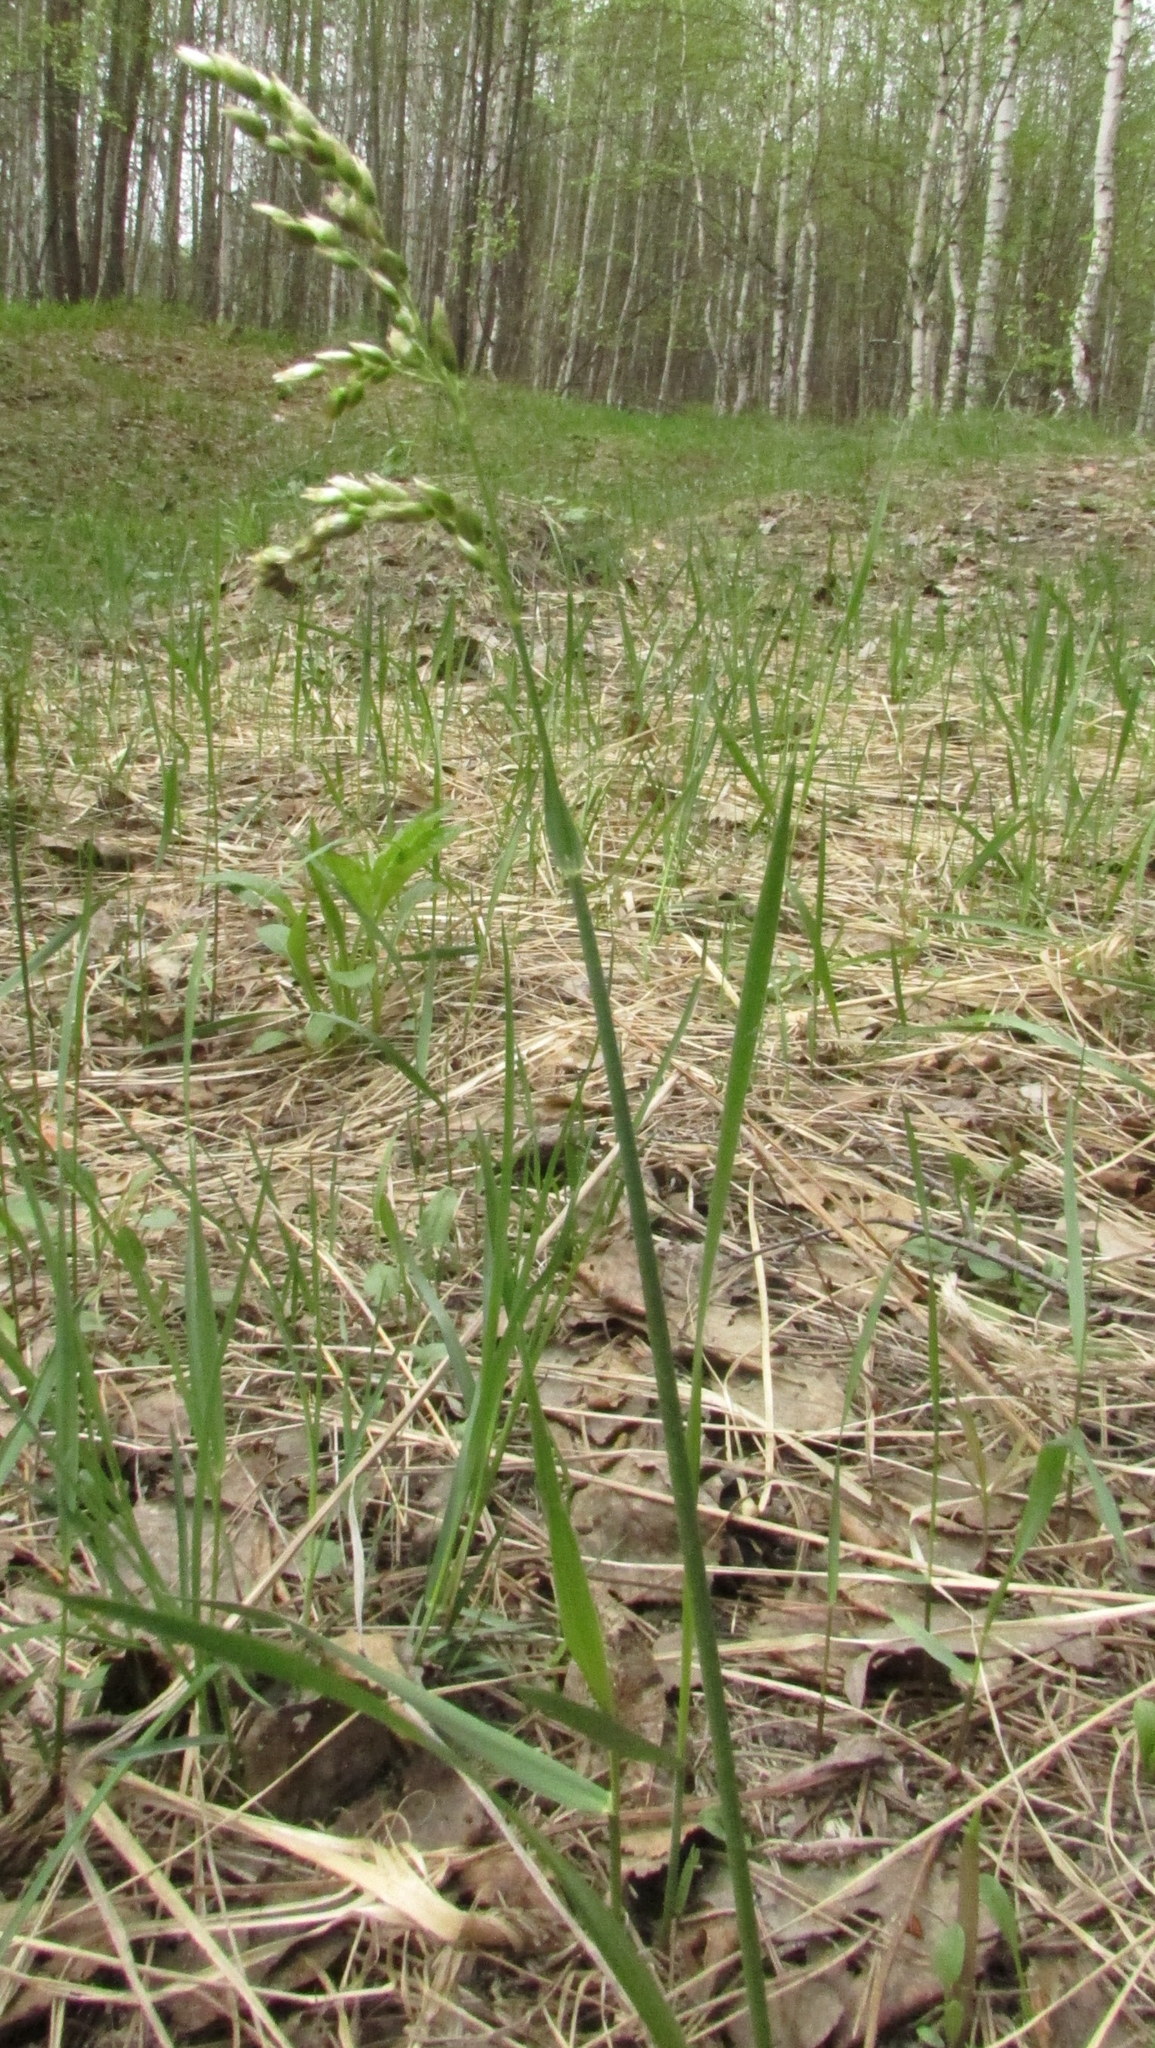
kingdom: Plantae
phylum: Tracheophyta
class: Liliopsida
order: Poales
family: Poaceae
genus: Anthoxanthum
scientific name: Anthoxanthum nitens
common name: Holy grass
